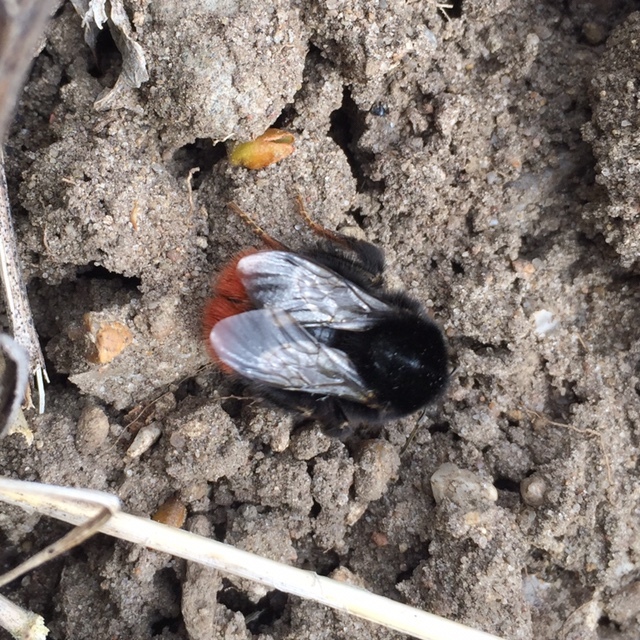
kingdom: Animalia
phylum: Arthropoda
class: Insecta
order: Hymenoptera
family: Apidae
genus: Bombus
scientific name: Bombus lapidarius
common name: Large red-tailed humble-bee
